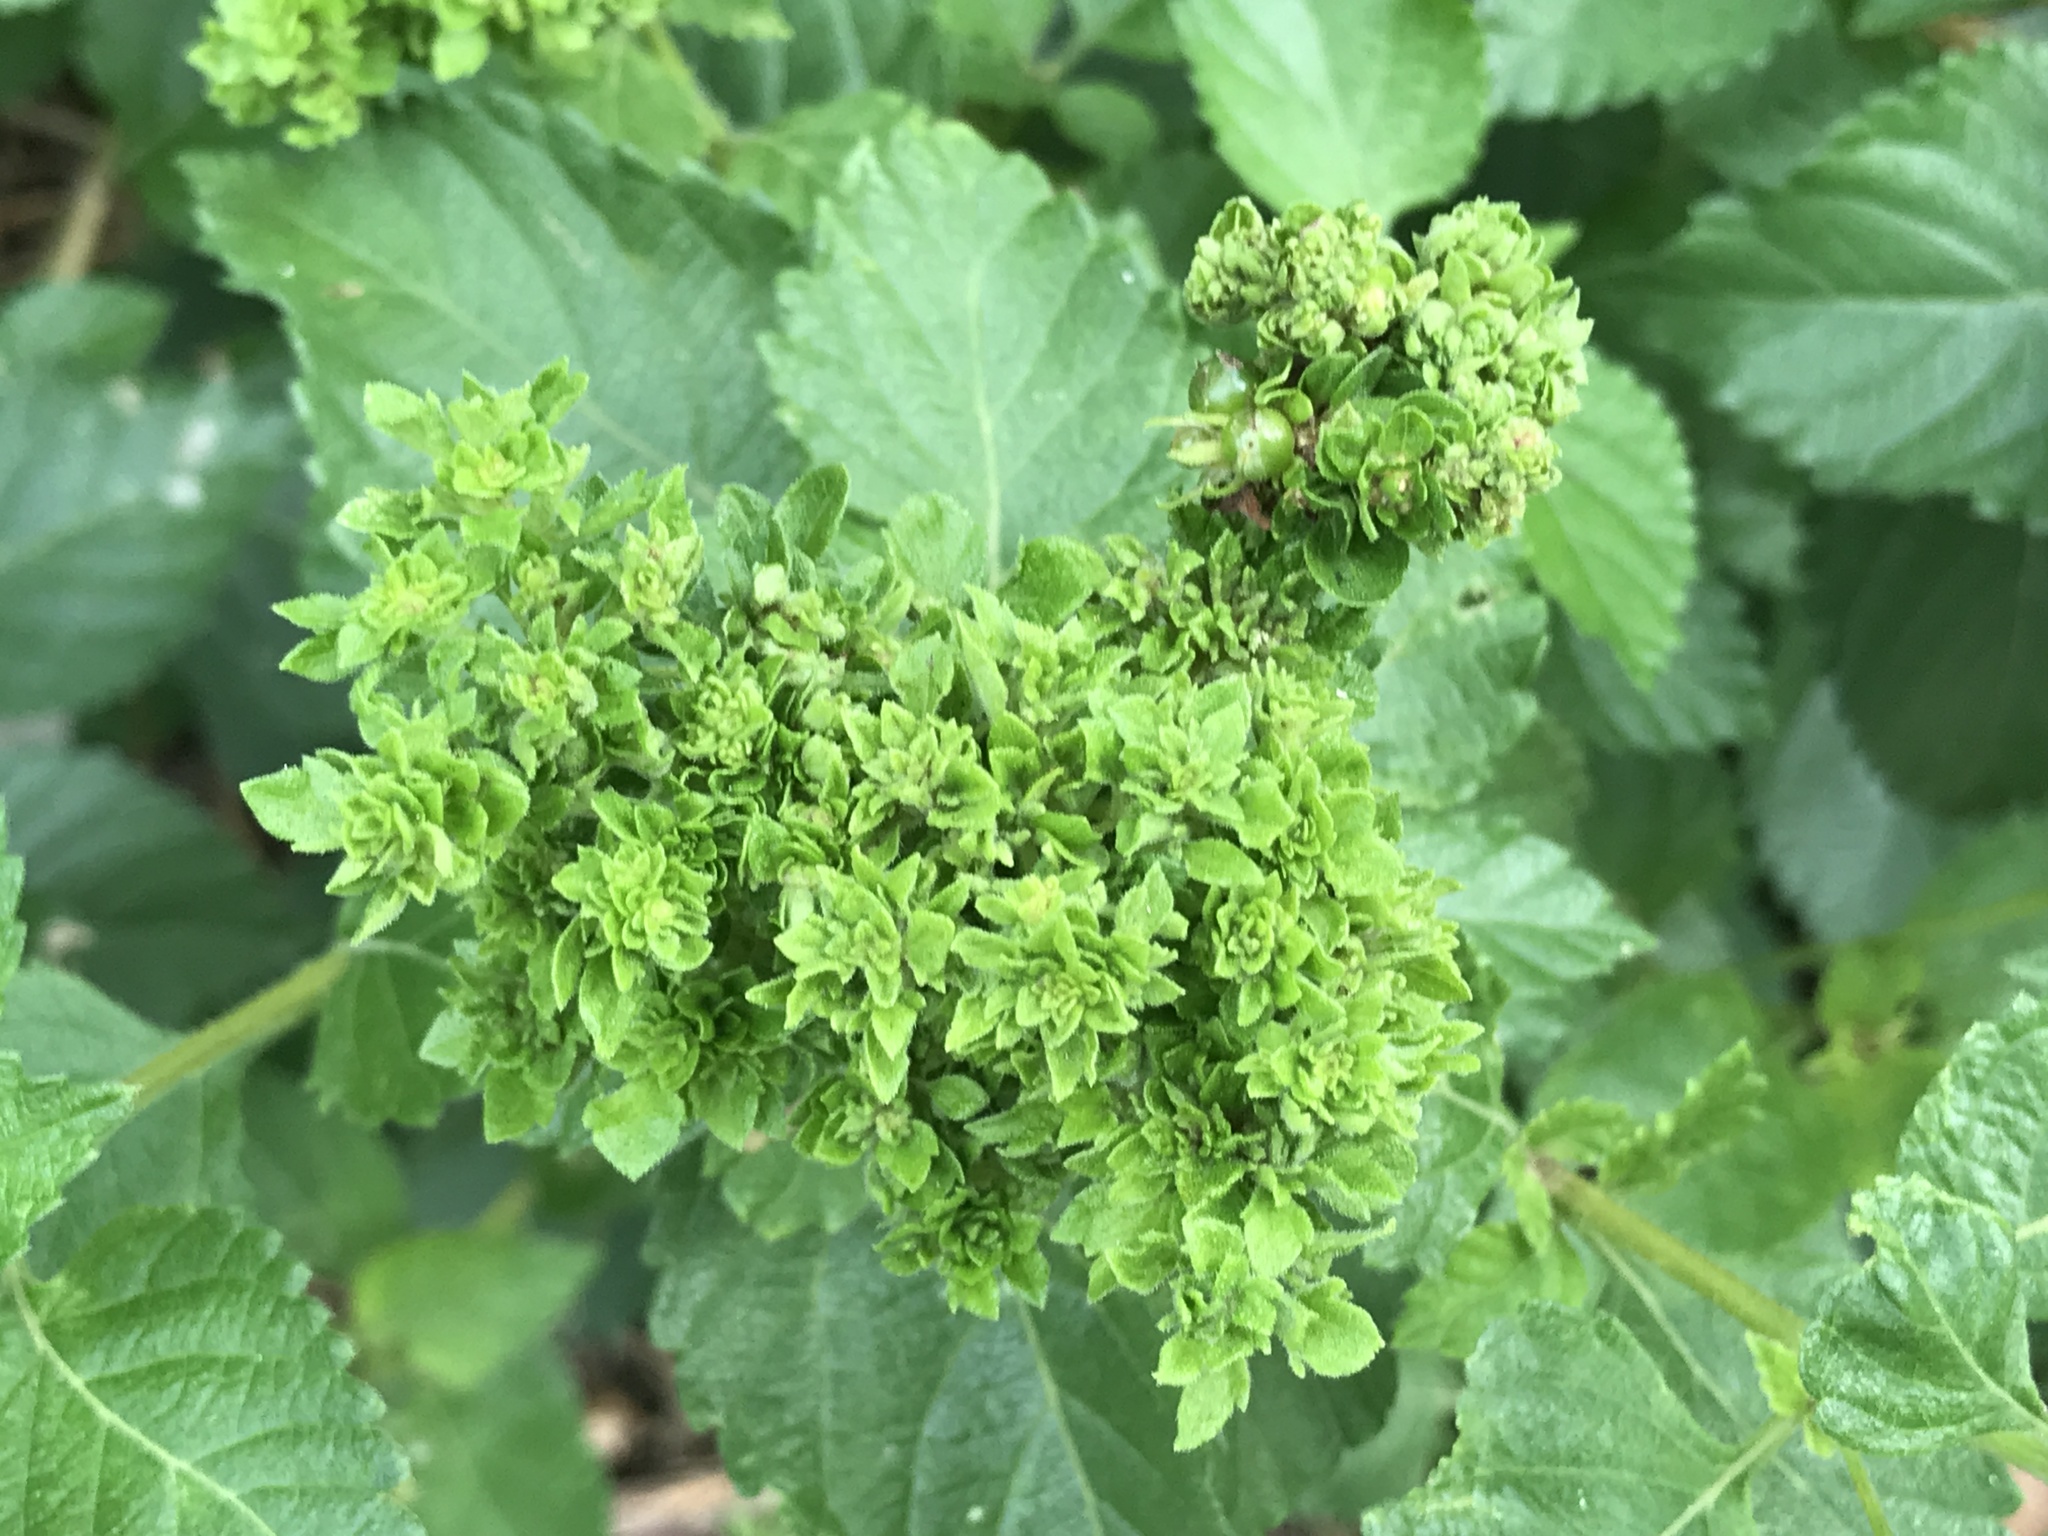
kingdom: Bacteria
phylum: Firmicutes
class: Bacilli
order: Acholeplasmatales
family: Acholeplasmataceae
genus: Phytoplasma
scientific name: Phytoplasma
